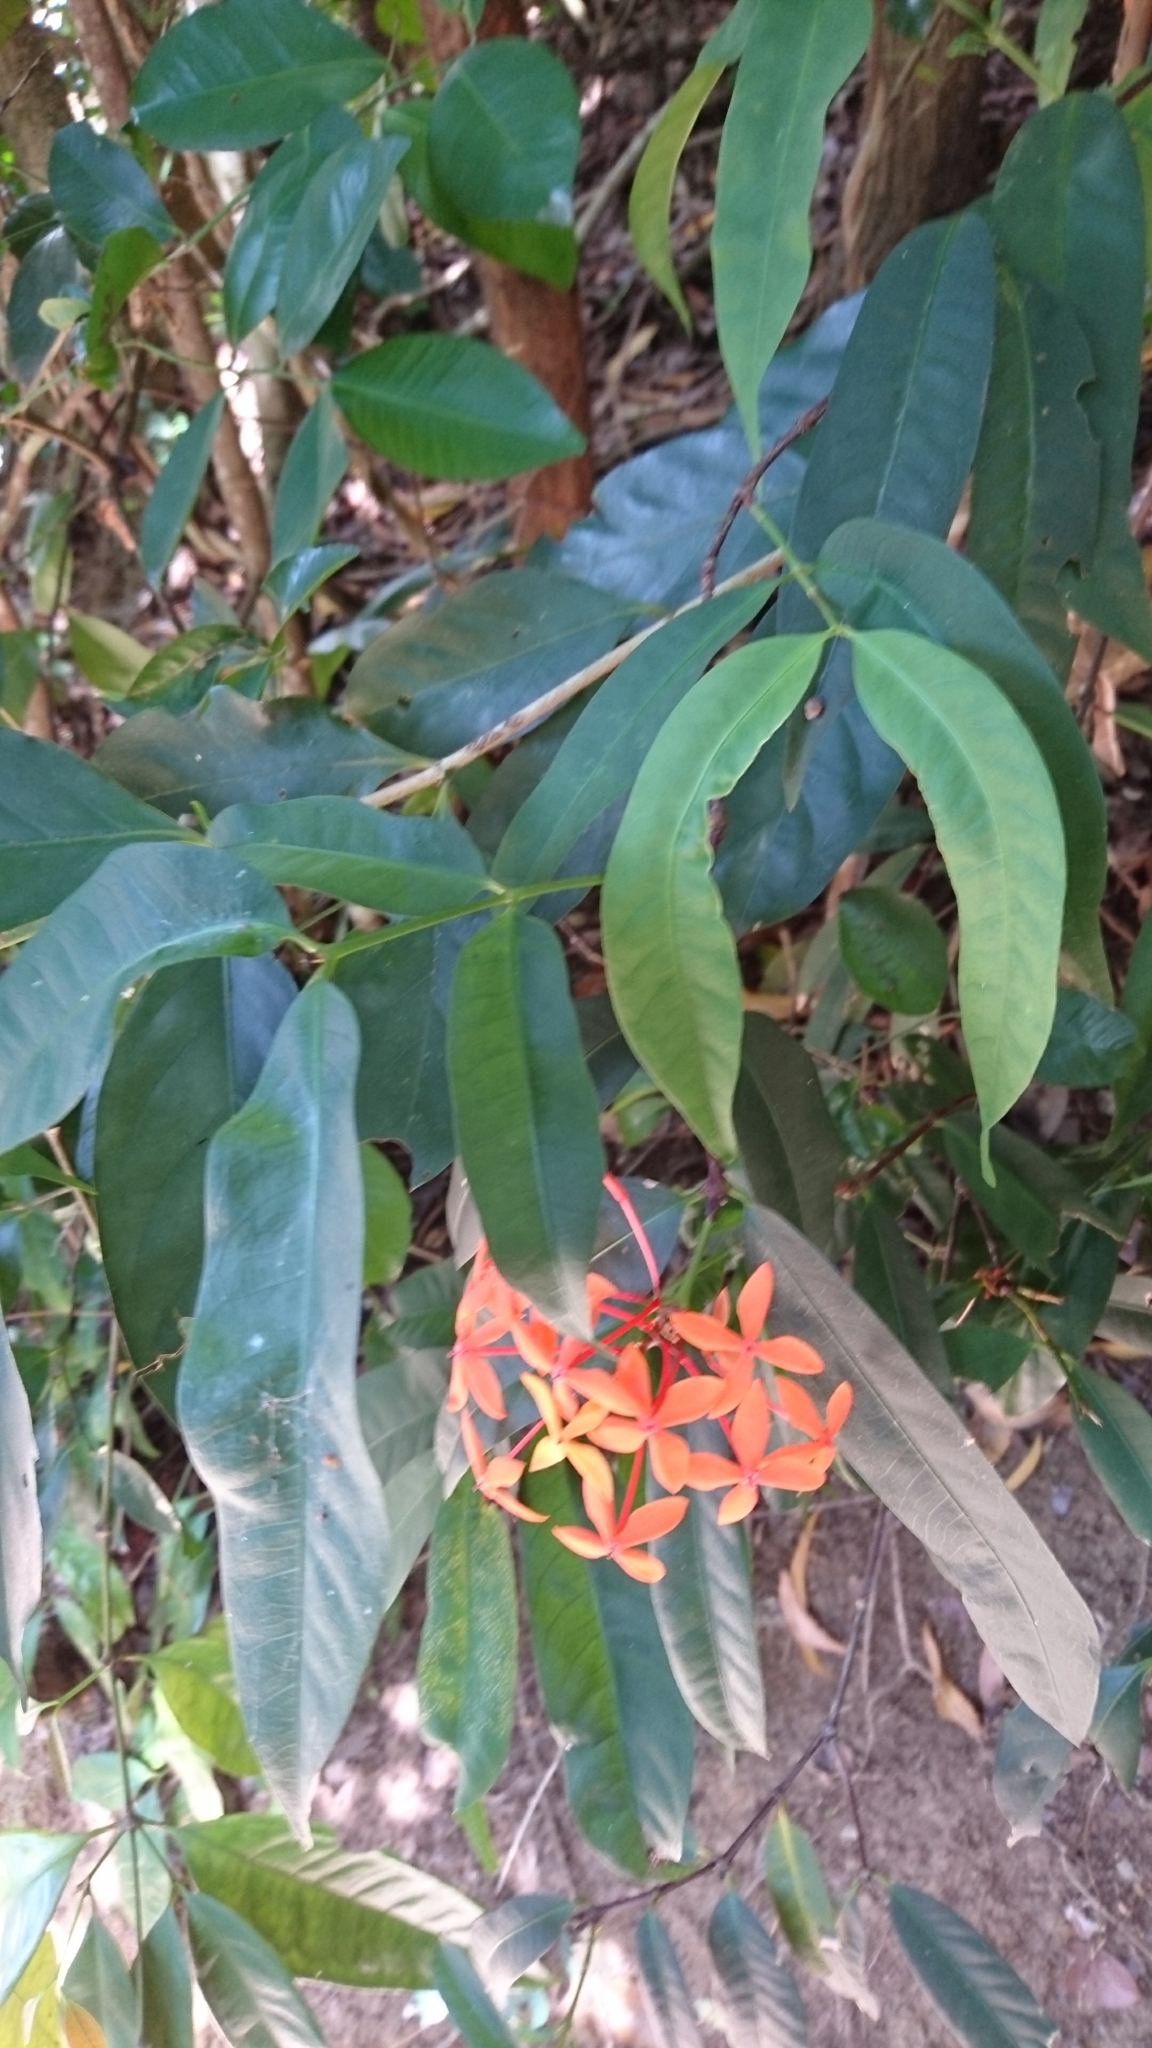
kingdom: Plantae
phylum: Tracheophyta
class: Magnoliopsida
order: Gentianales
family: Rubiaceae
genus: Ixora
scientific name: Ixora coccinea
